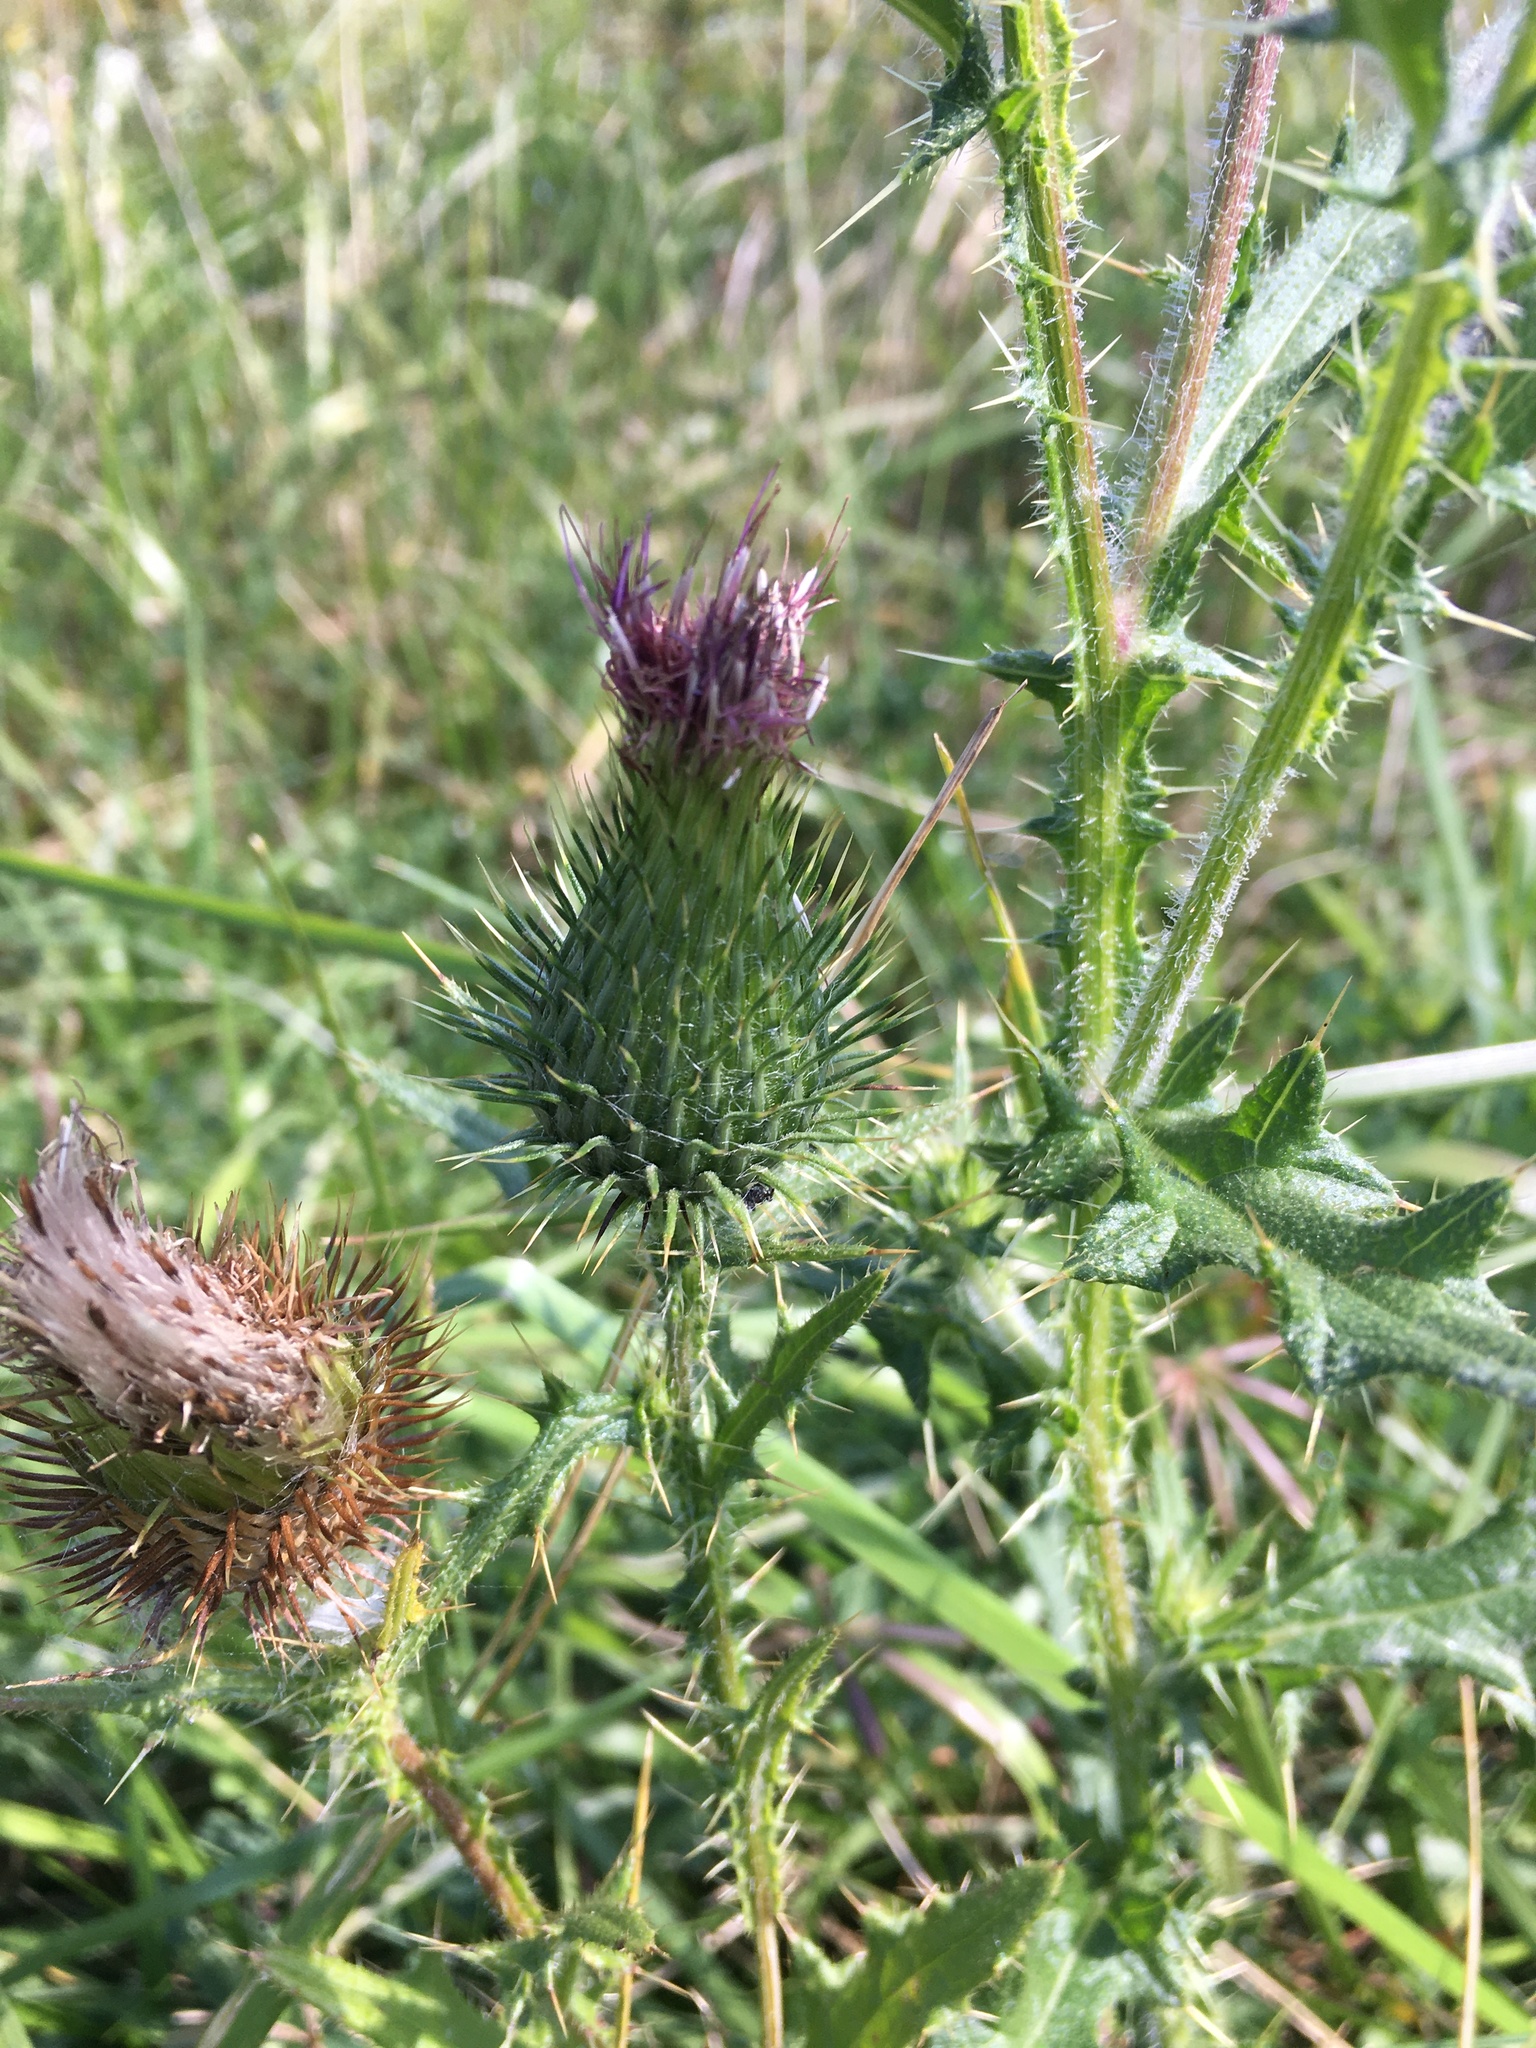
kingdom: Plantae
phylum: Tracheophyta
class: Magnoliopsida
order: Asterales
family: Asteraceae
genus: Cirsium
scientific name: Cirsium vulgare
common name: Bull thistle
